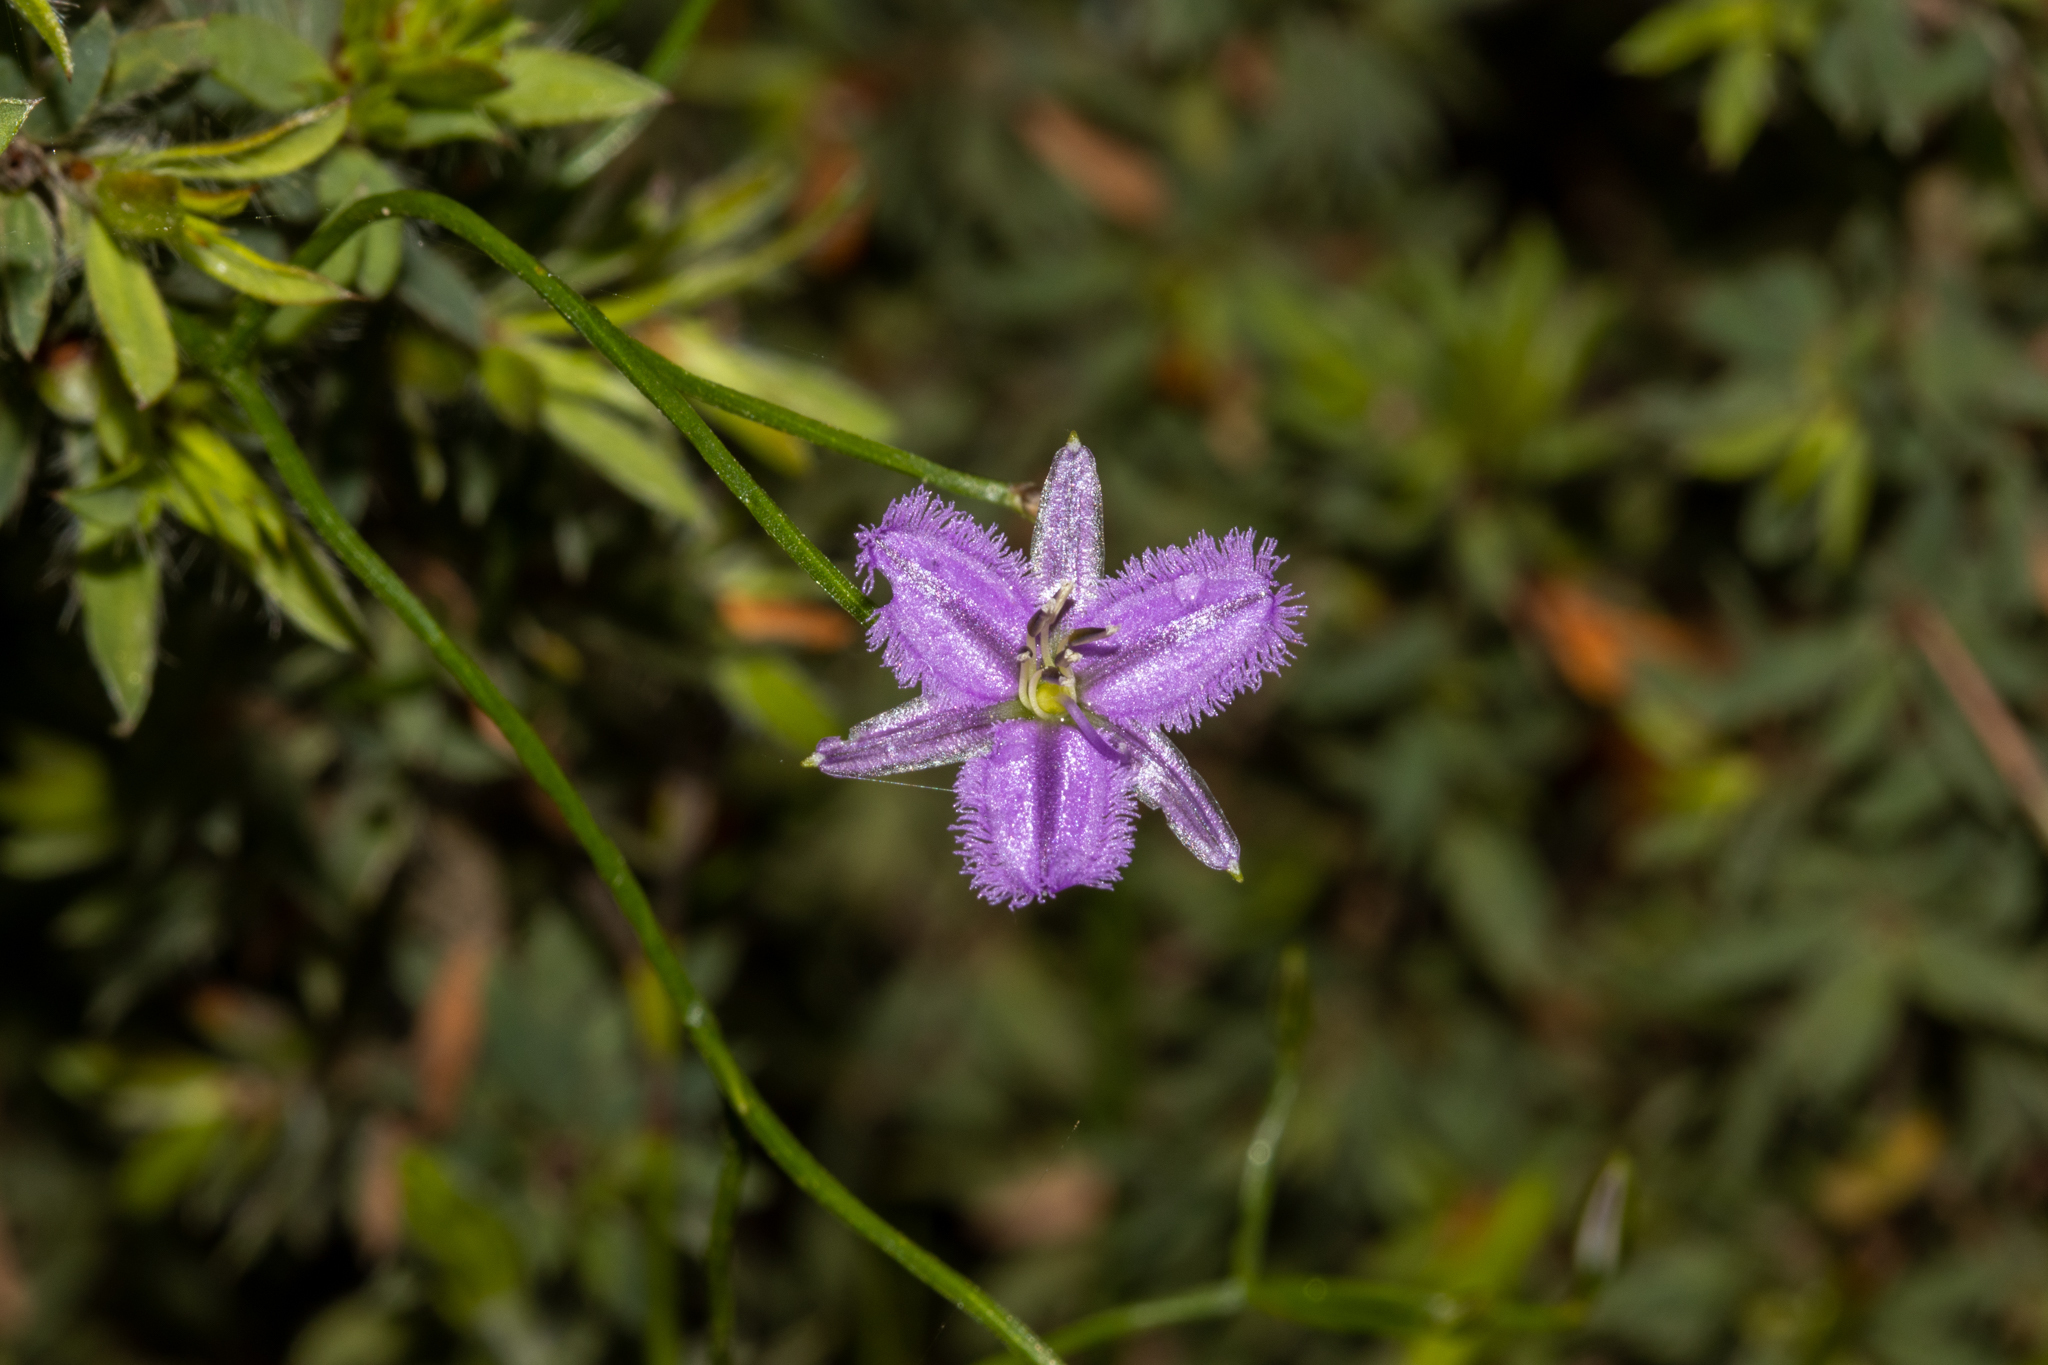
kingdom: Plantae
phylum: Tracheophyta
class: Liliopsida
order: Asparagales
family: Asparagaceae
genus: Thysanotus
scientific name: Thysanotus patersonii
